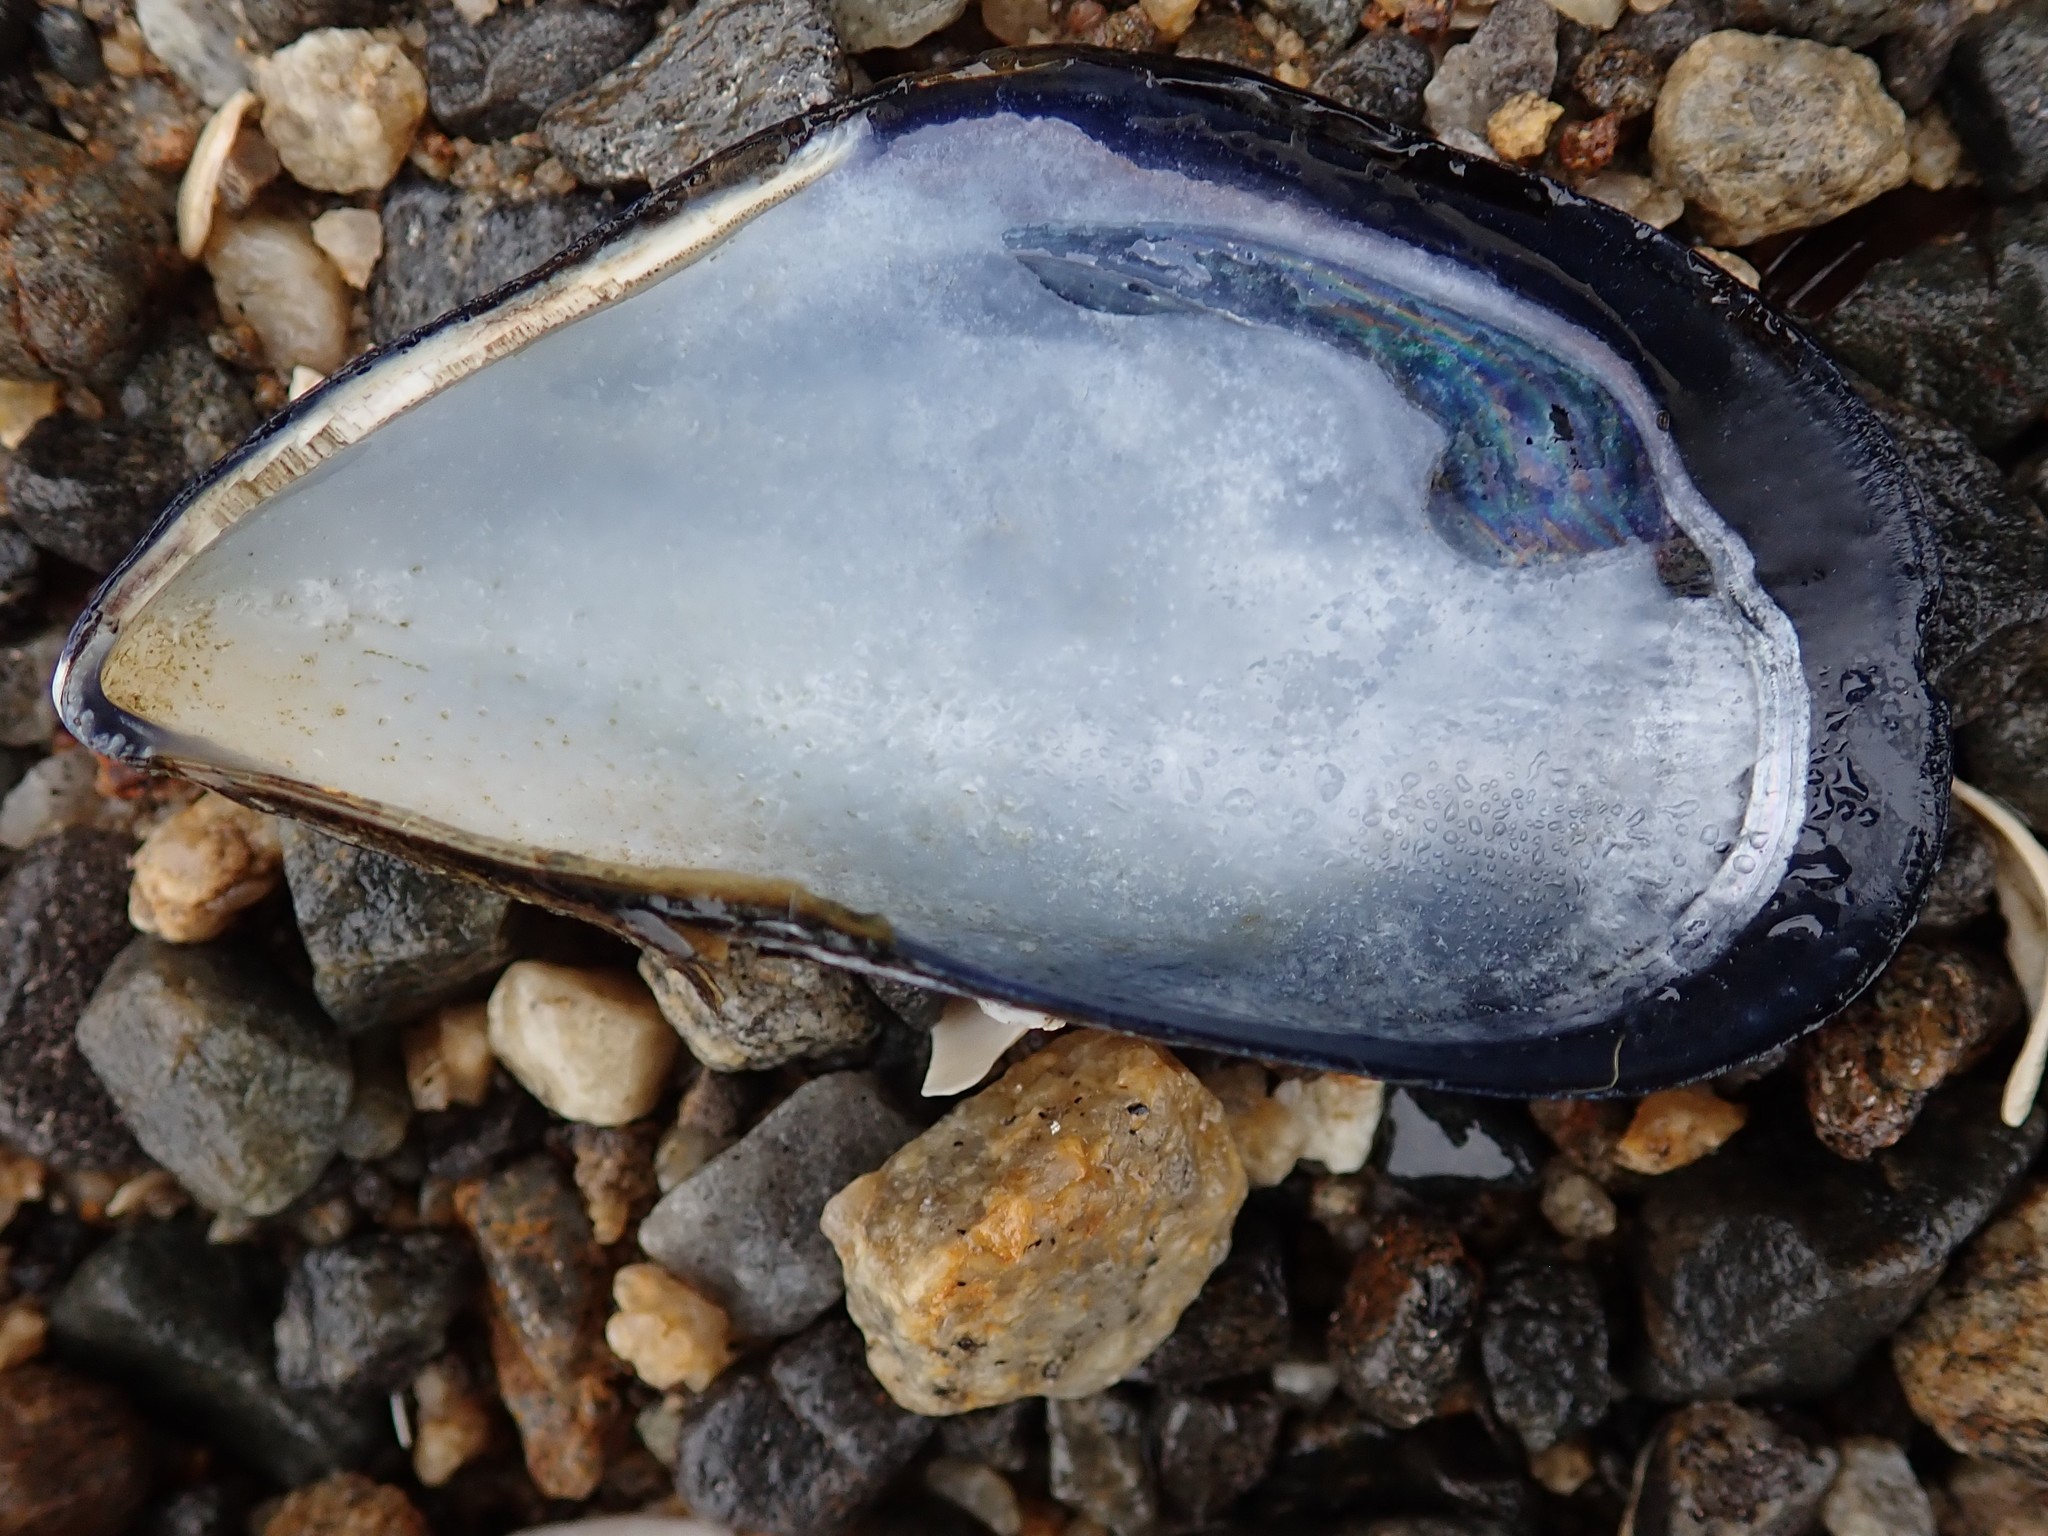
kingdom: Animalia
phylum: Mollusca
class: Bivalvia
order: Mytilida
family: Mytilidae
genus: Mytilus
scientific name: Mytilus
